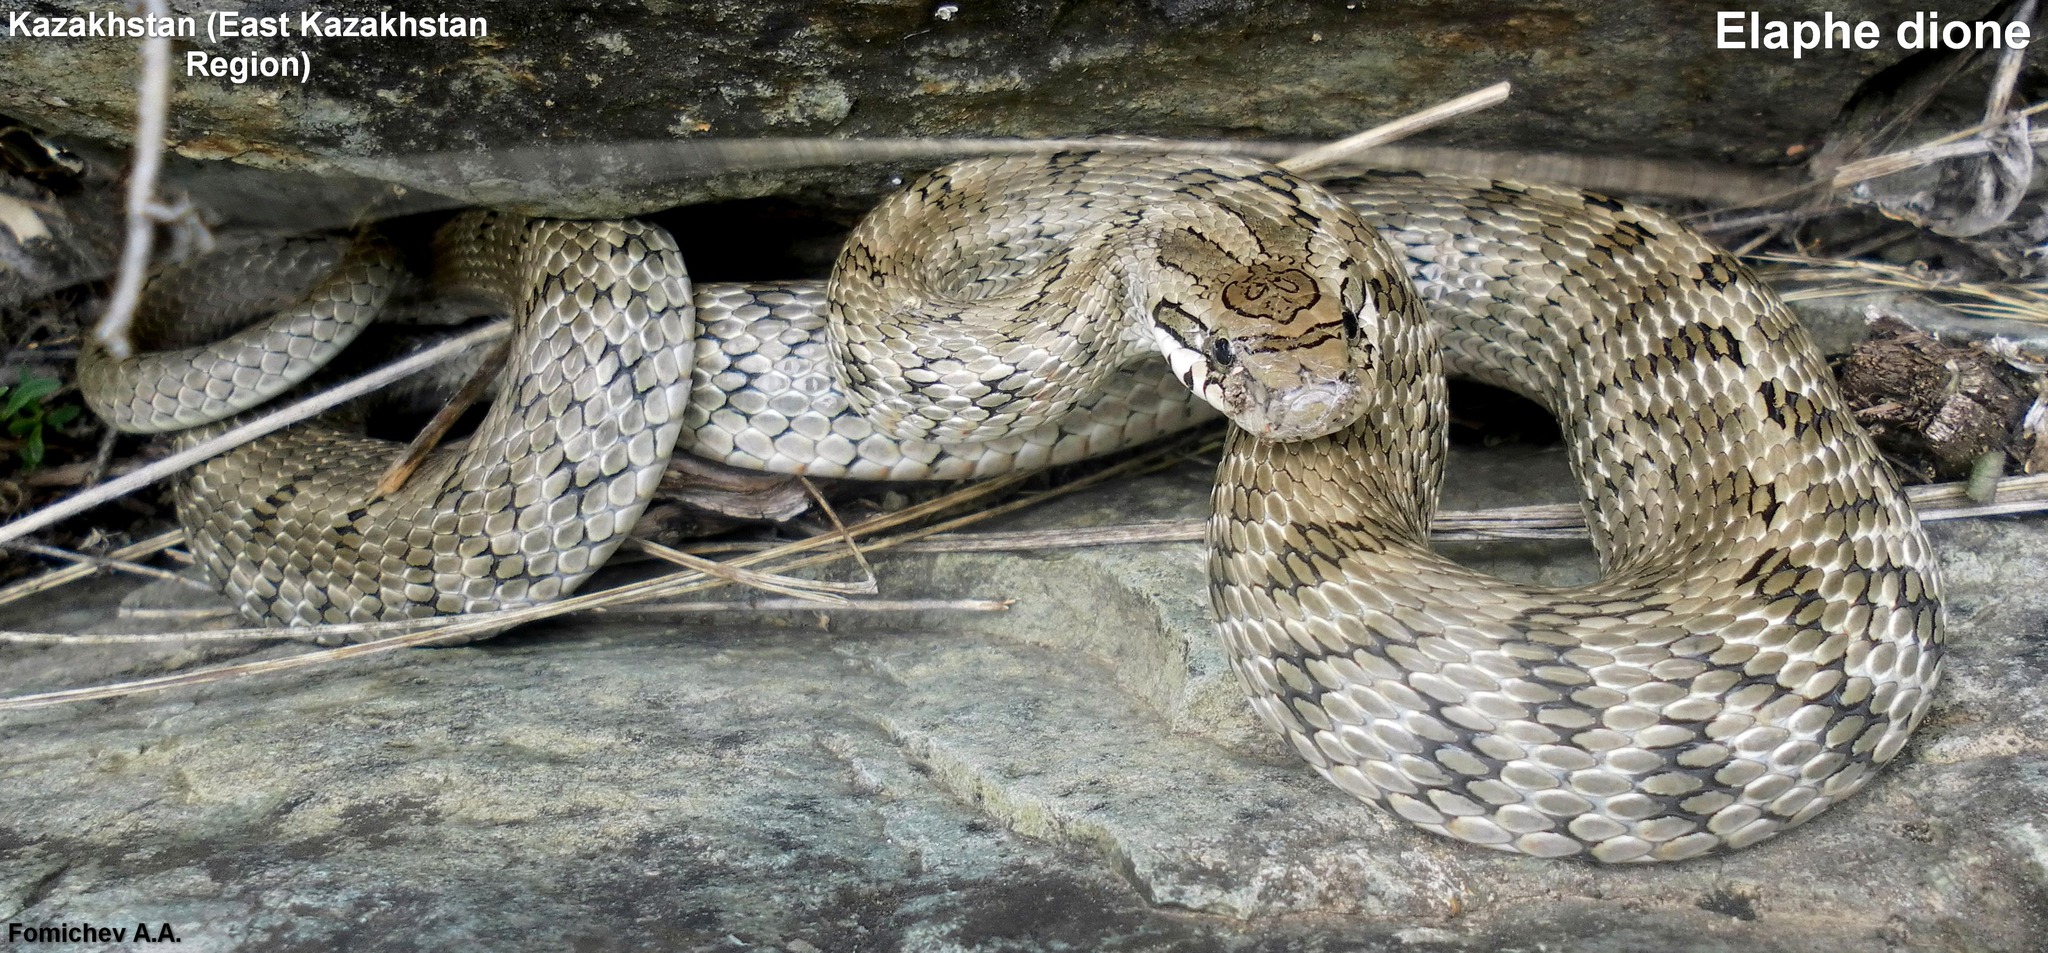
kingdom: Animalia
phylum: Chordata
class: Squamata
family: Colubridae
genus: Elaphe
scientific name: Elaphe dione
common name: Dione ratsnake
